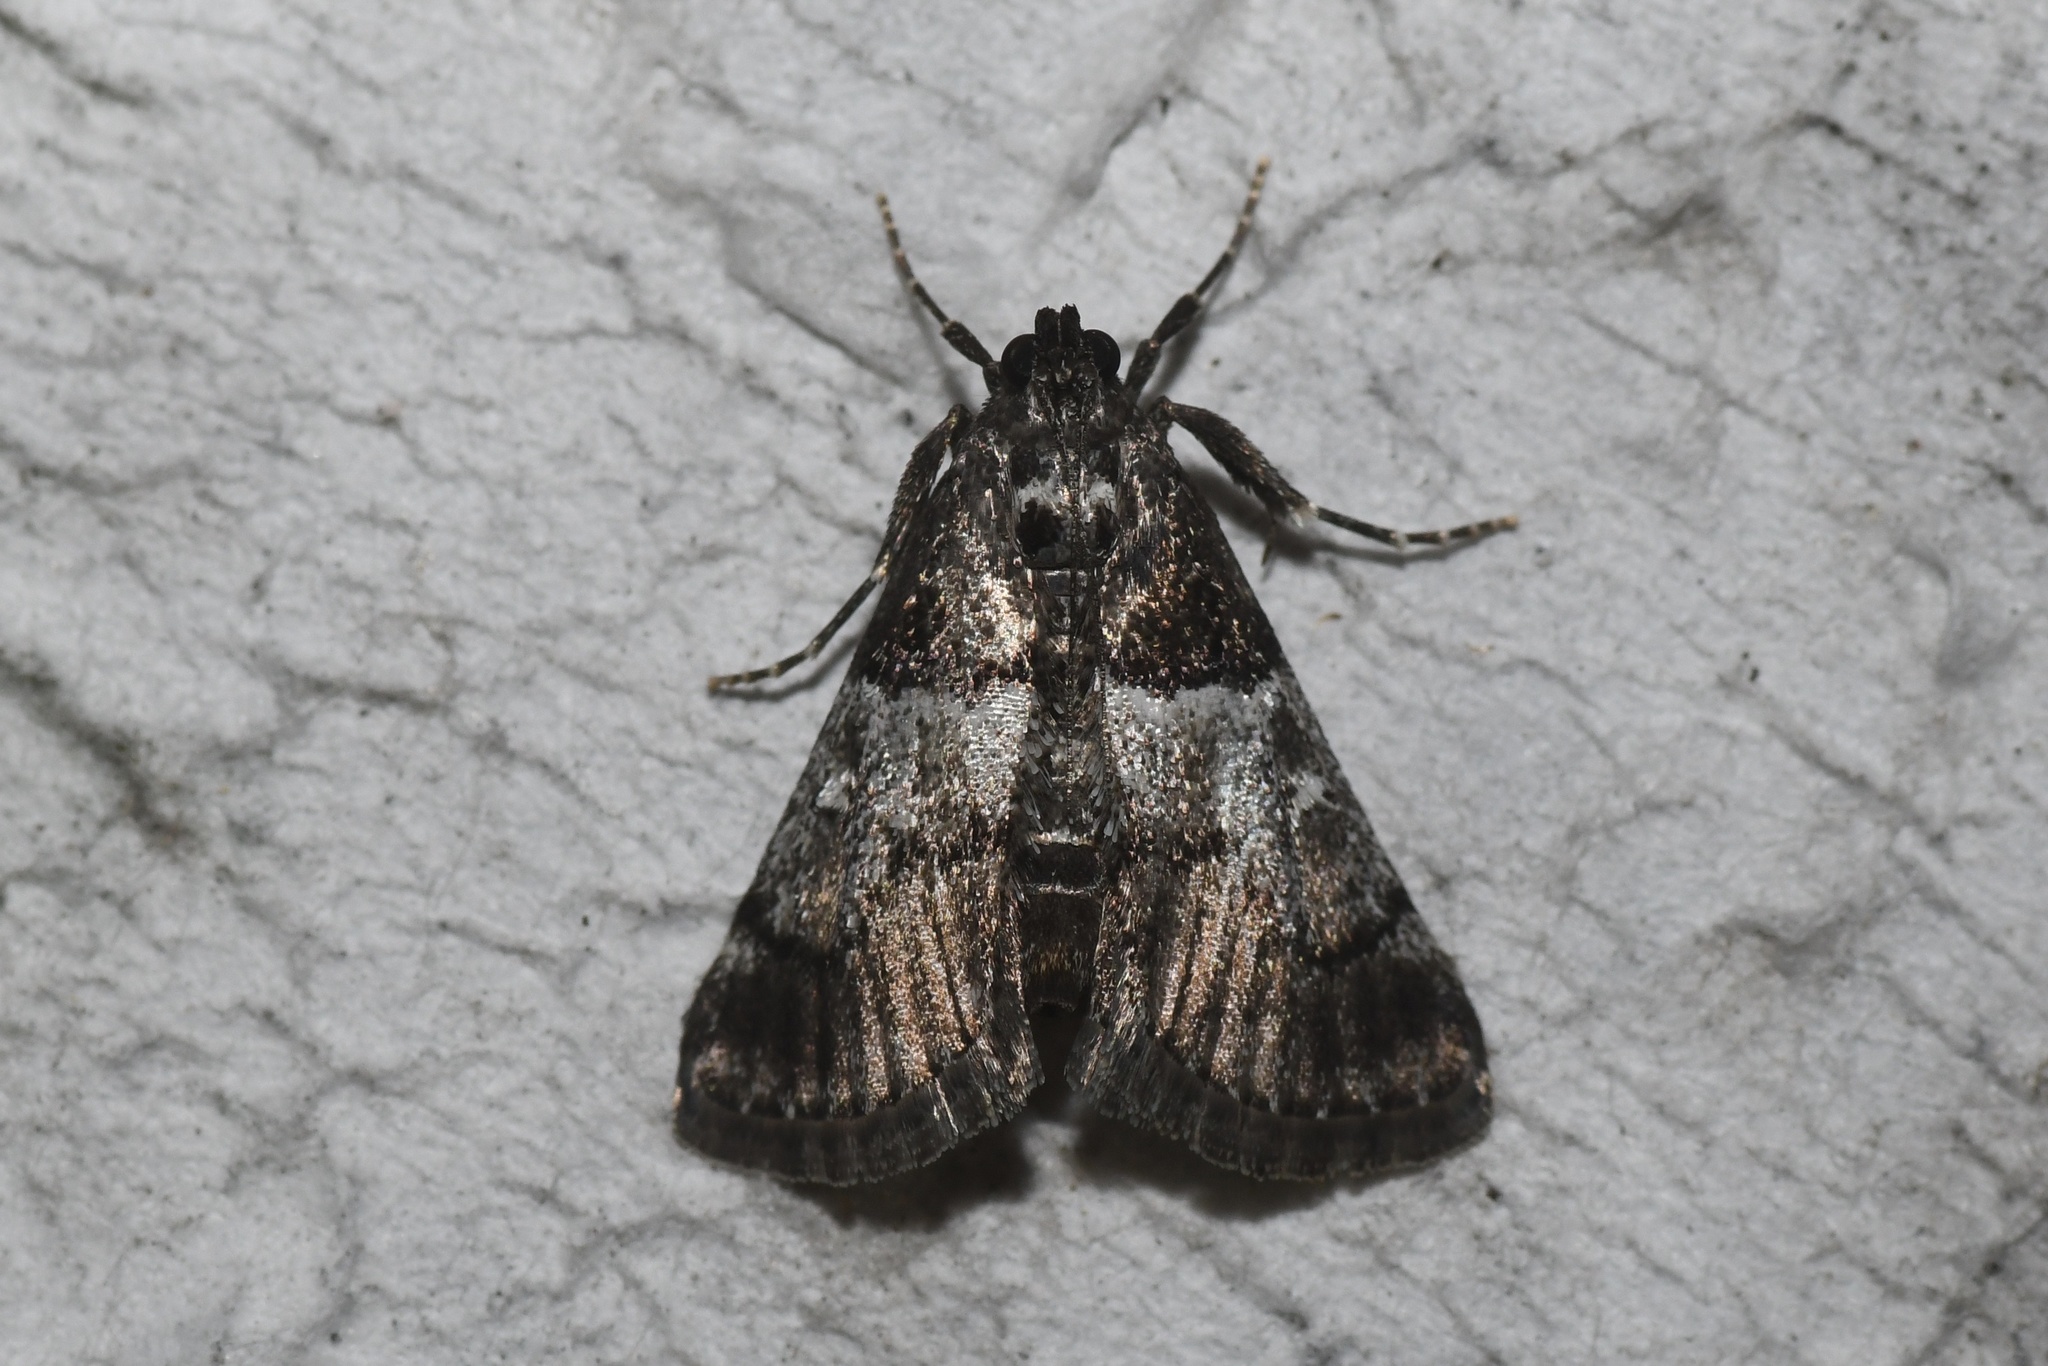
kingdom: Animalia
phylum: Arthropoda
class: Insecta
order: Lepidoptera
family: Pyralidae
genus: Macalla
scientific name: Macalla zelleri
